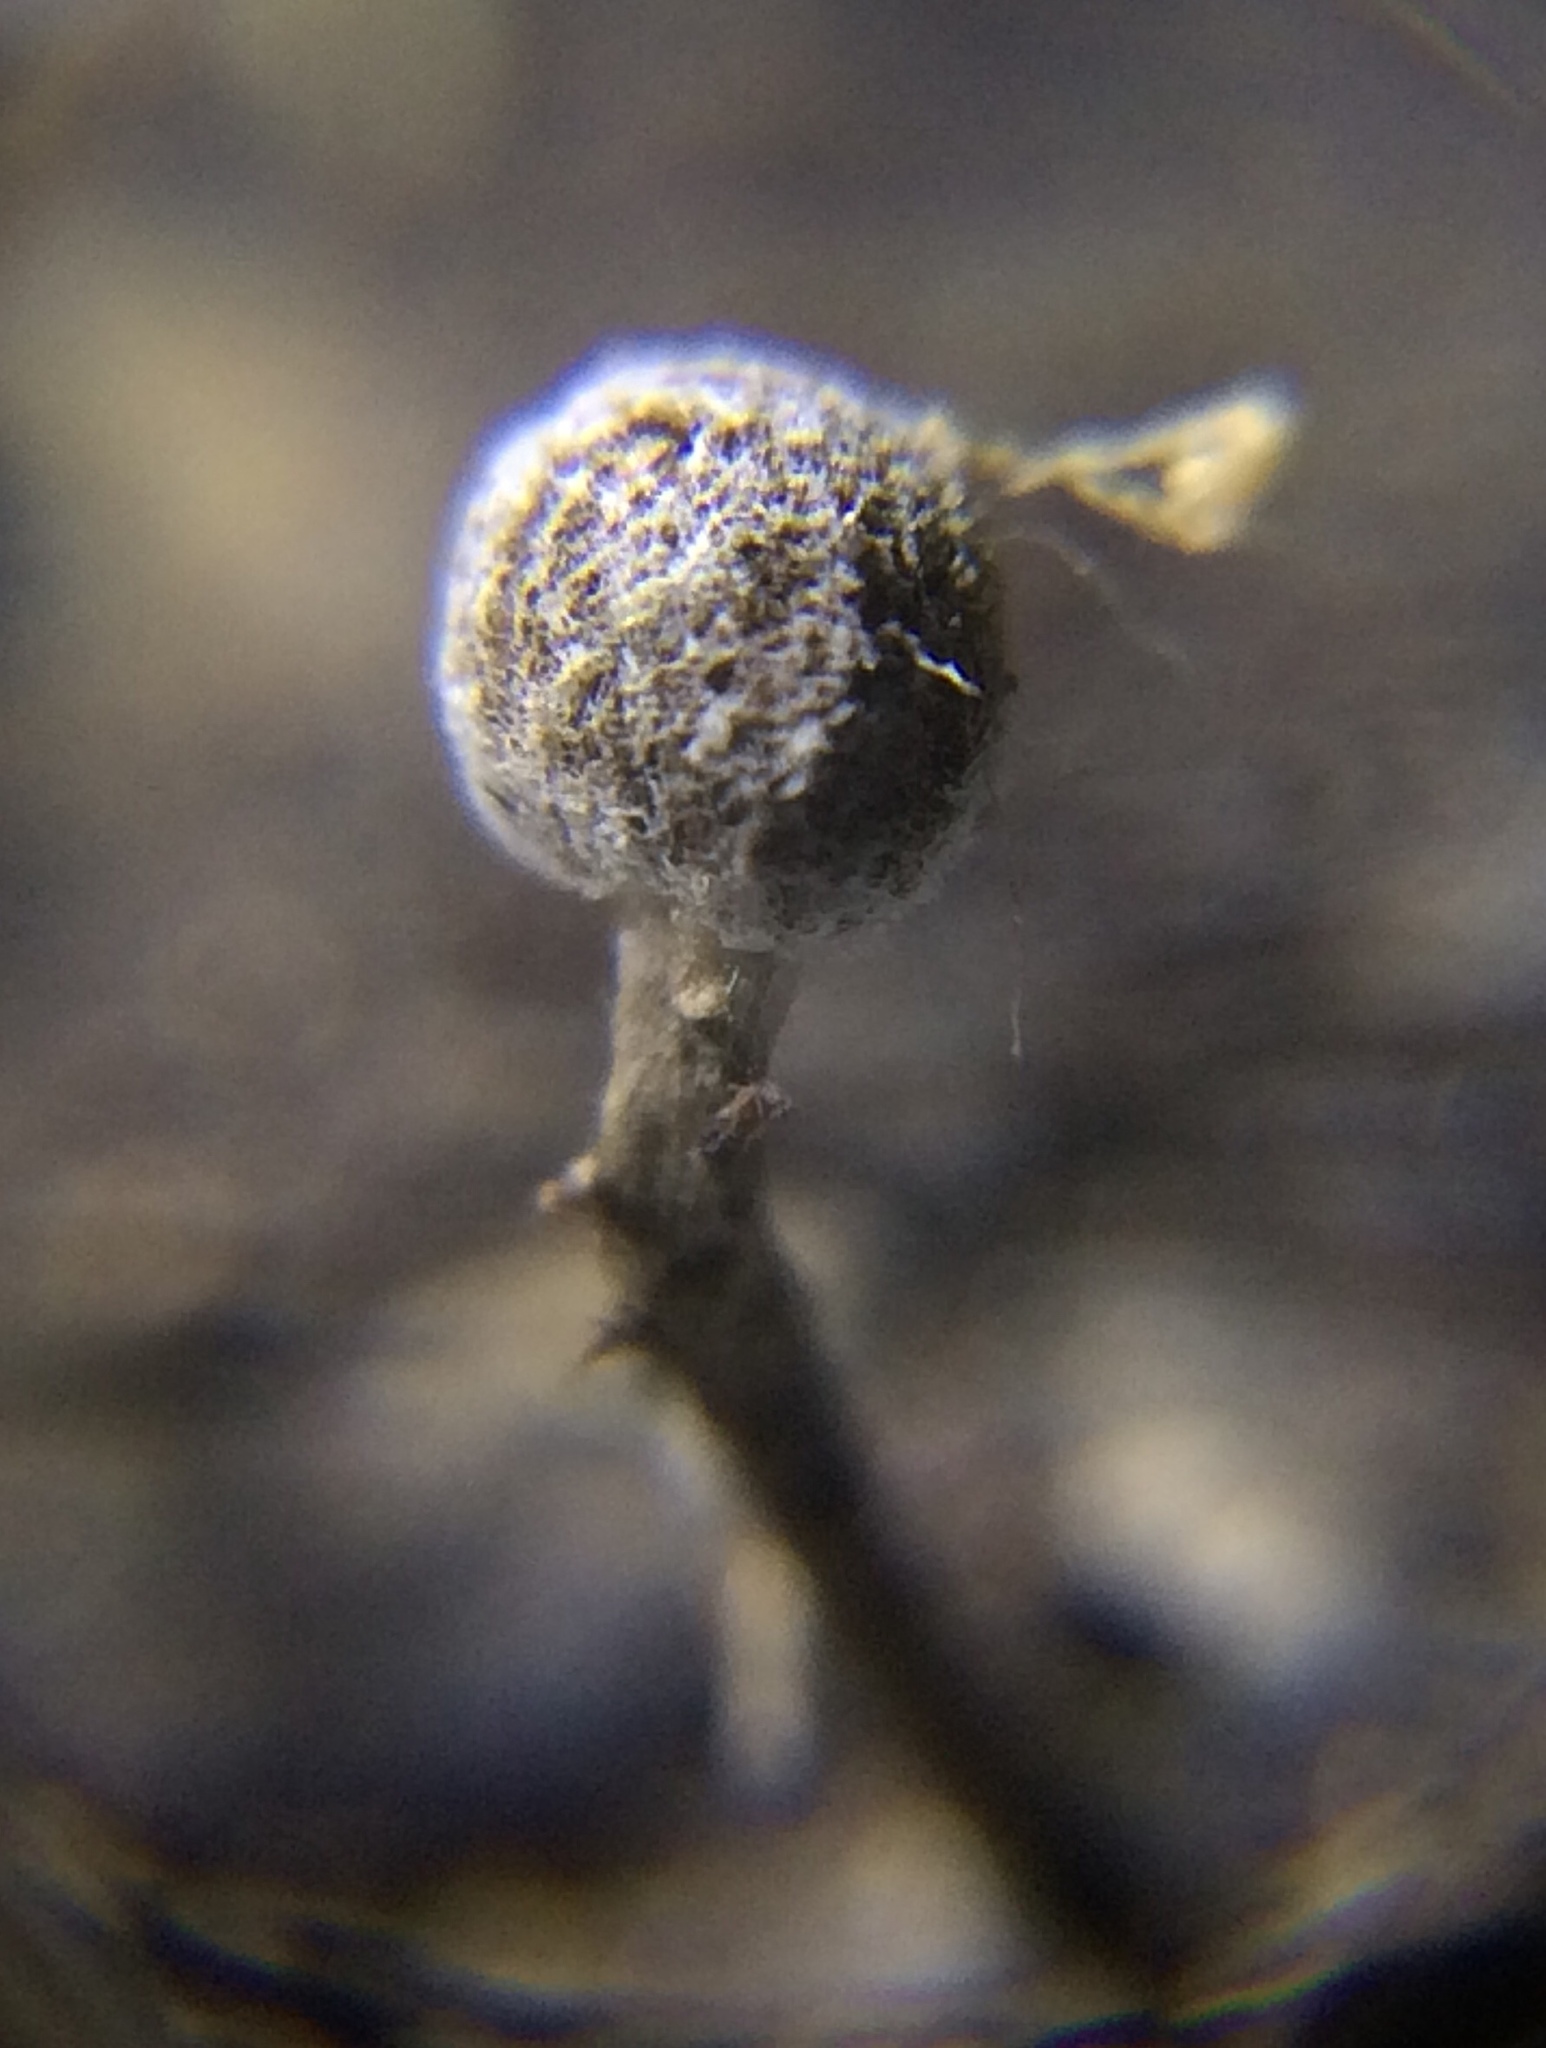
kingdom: Fungi
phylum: Basidiomycota
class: Atractiellomycetes
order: Atractiellales
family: Phleogenaceae
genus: Phleogena
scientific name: Phleogena faginea
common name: Fenugreek stalkball
